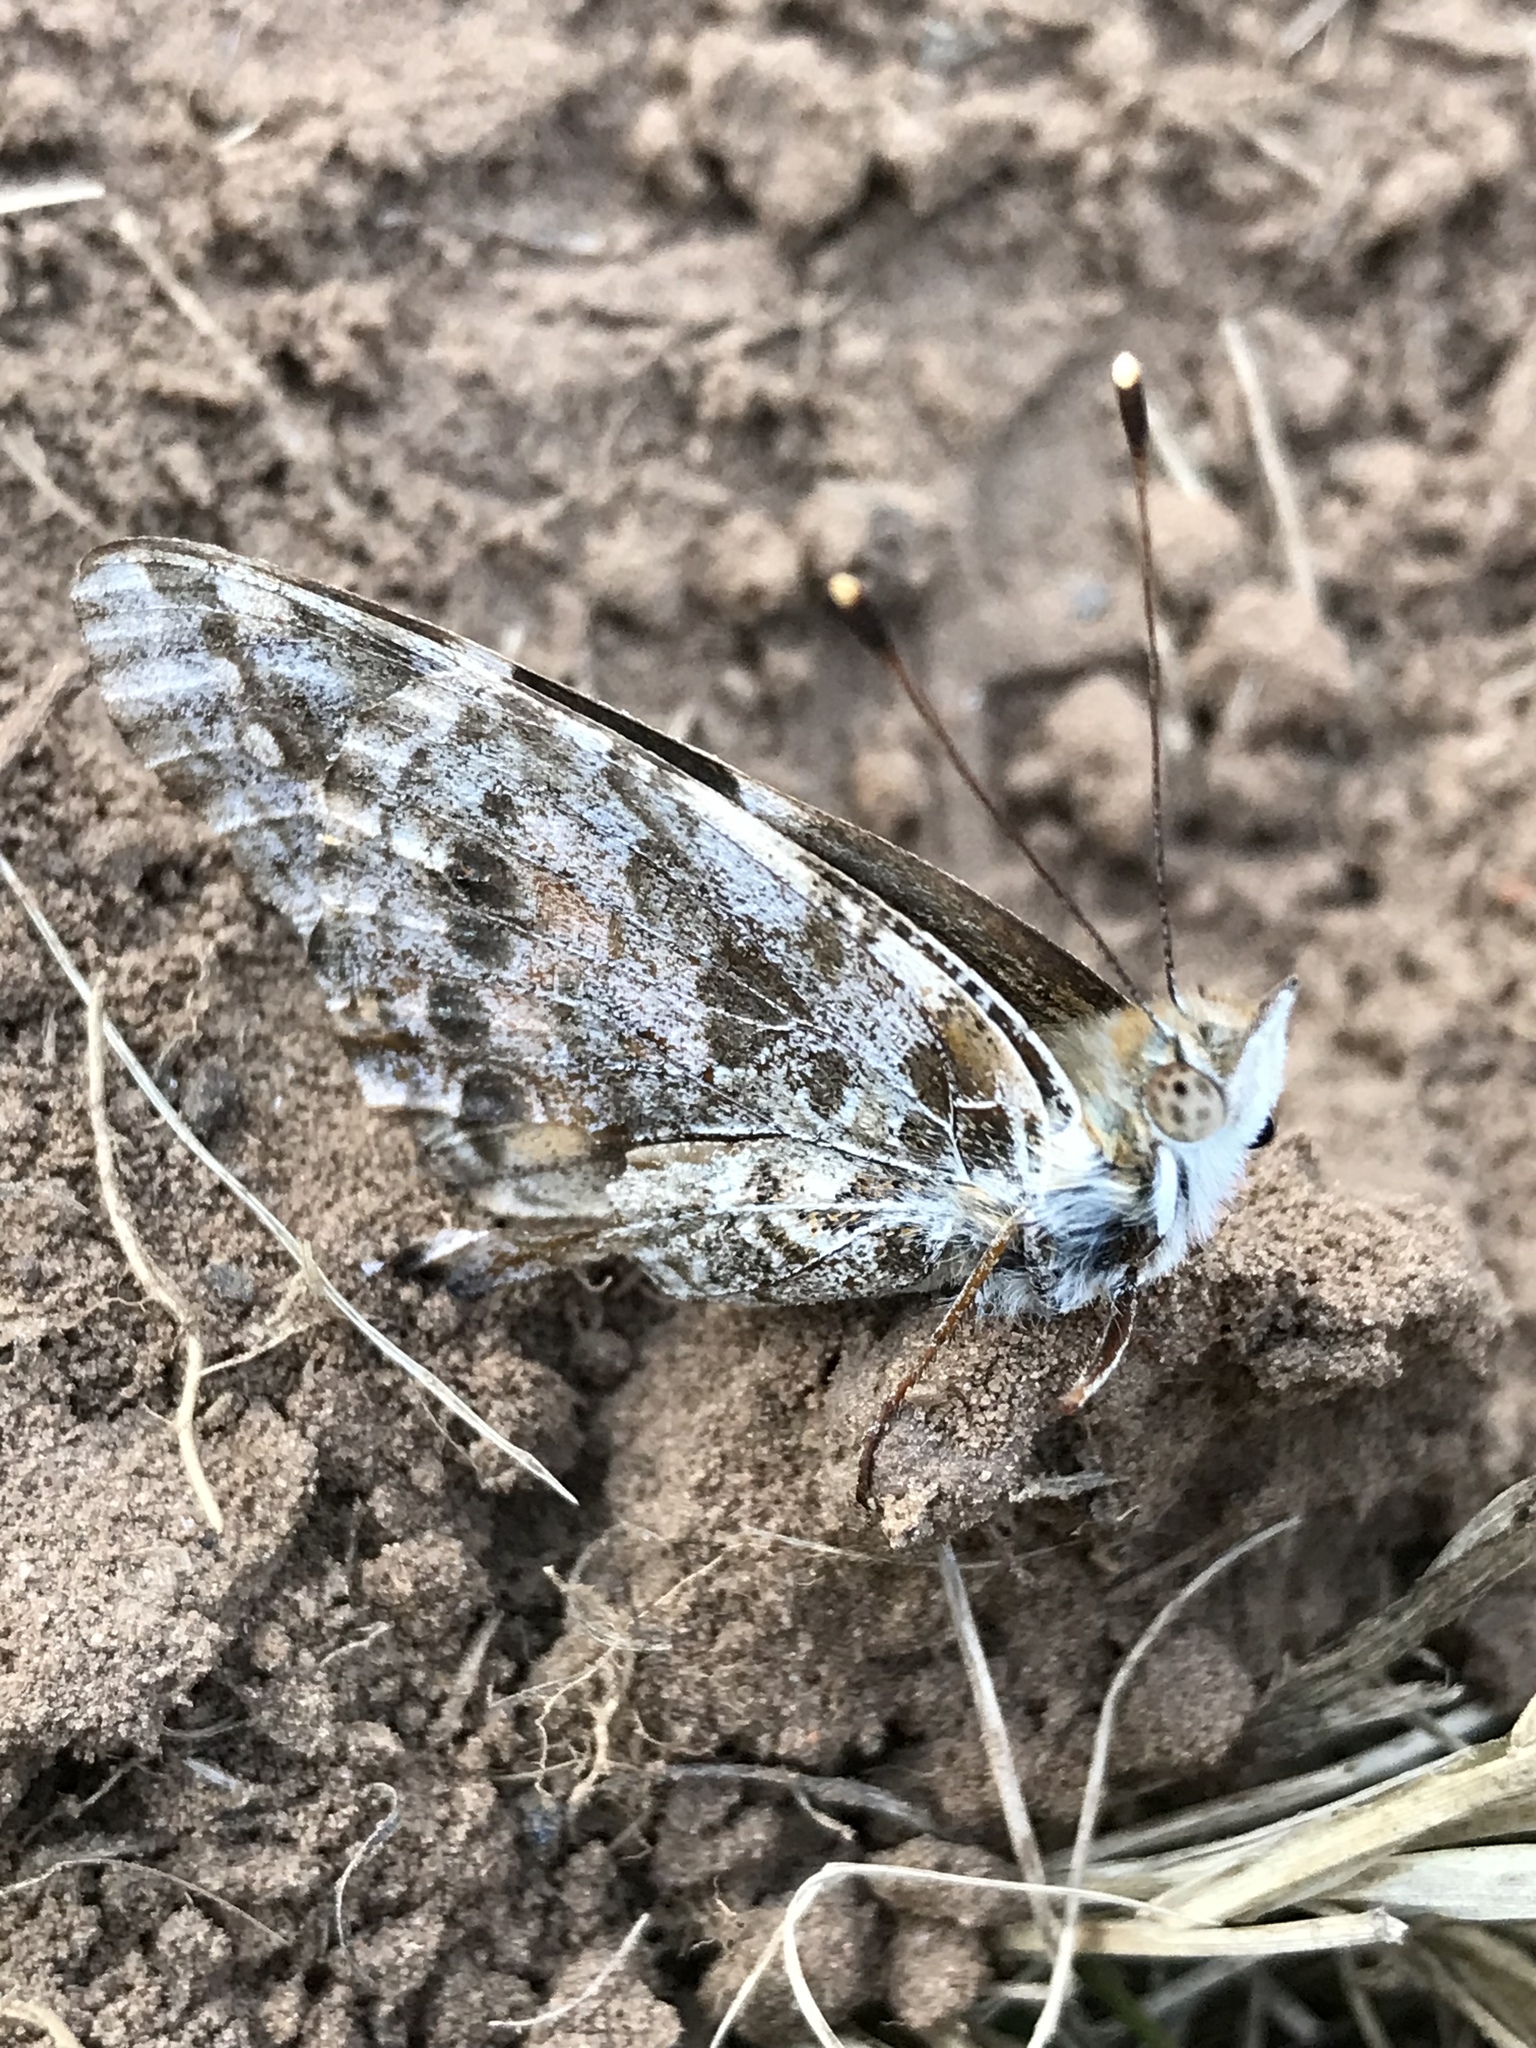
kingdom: Animalia
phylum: Arthropoda
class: Insecta
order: Lepidoptera
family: Nymphalidae
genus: Vanessa
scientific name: Vanessa cardui
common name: Painted lady
